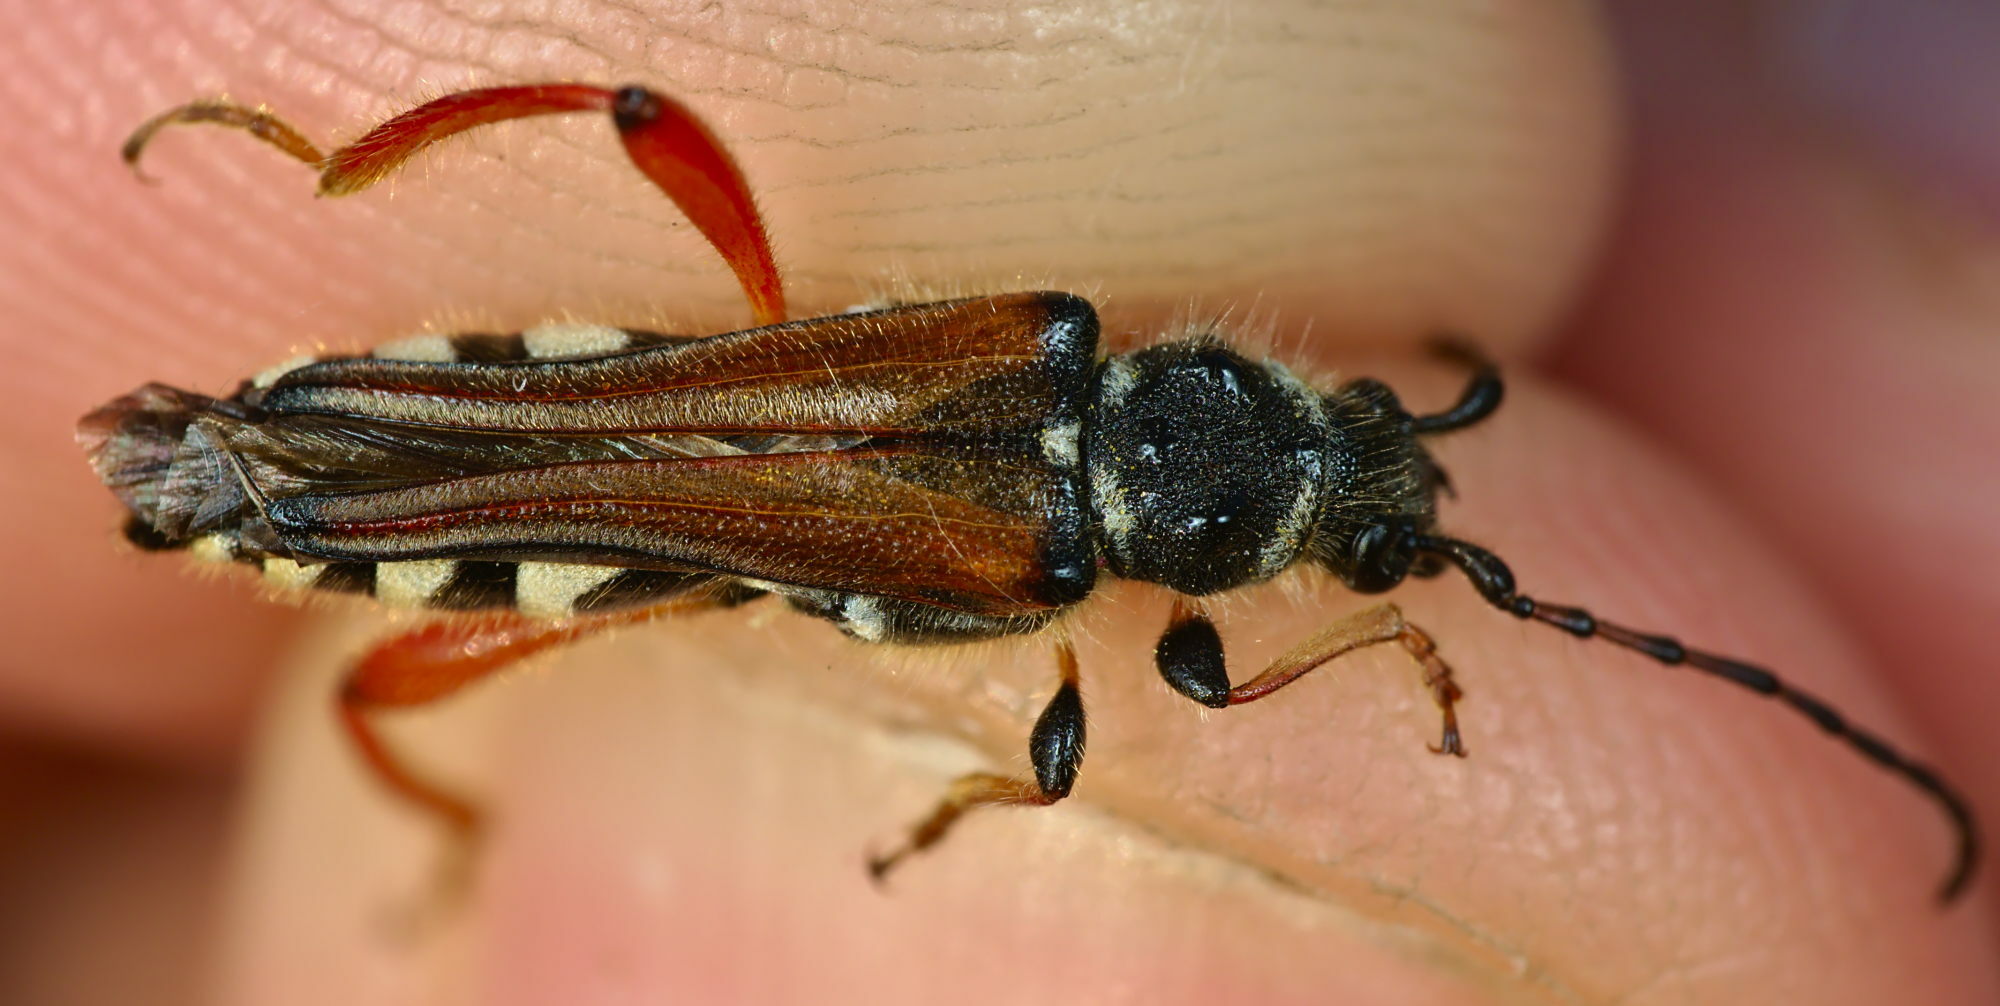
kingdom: Animalia
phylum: Arthropoda
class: Insecta
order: Coleoptera
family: Cerambycidae
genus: Stenopterus
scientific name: Stenopterus rufus
